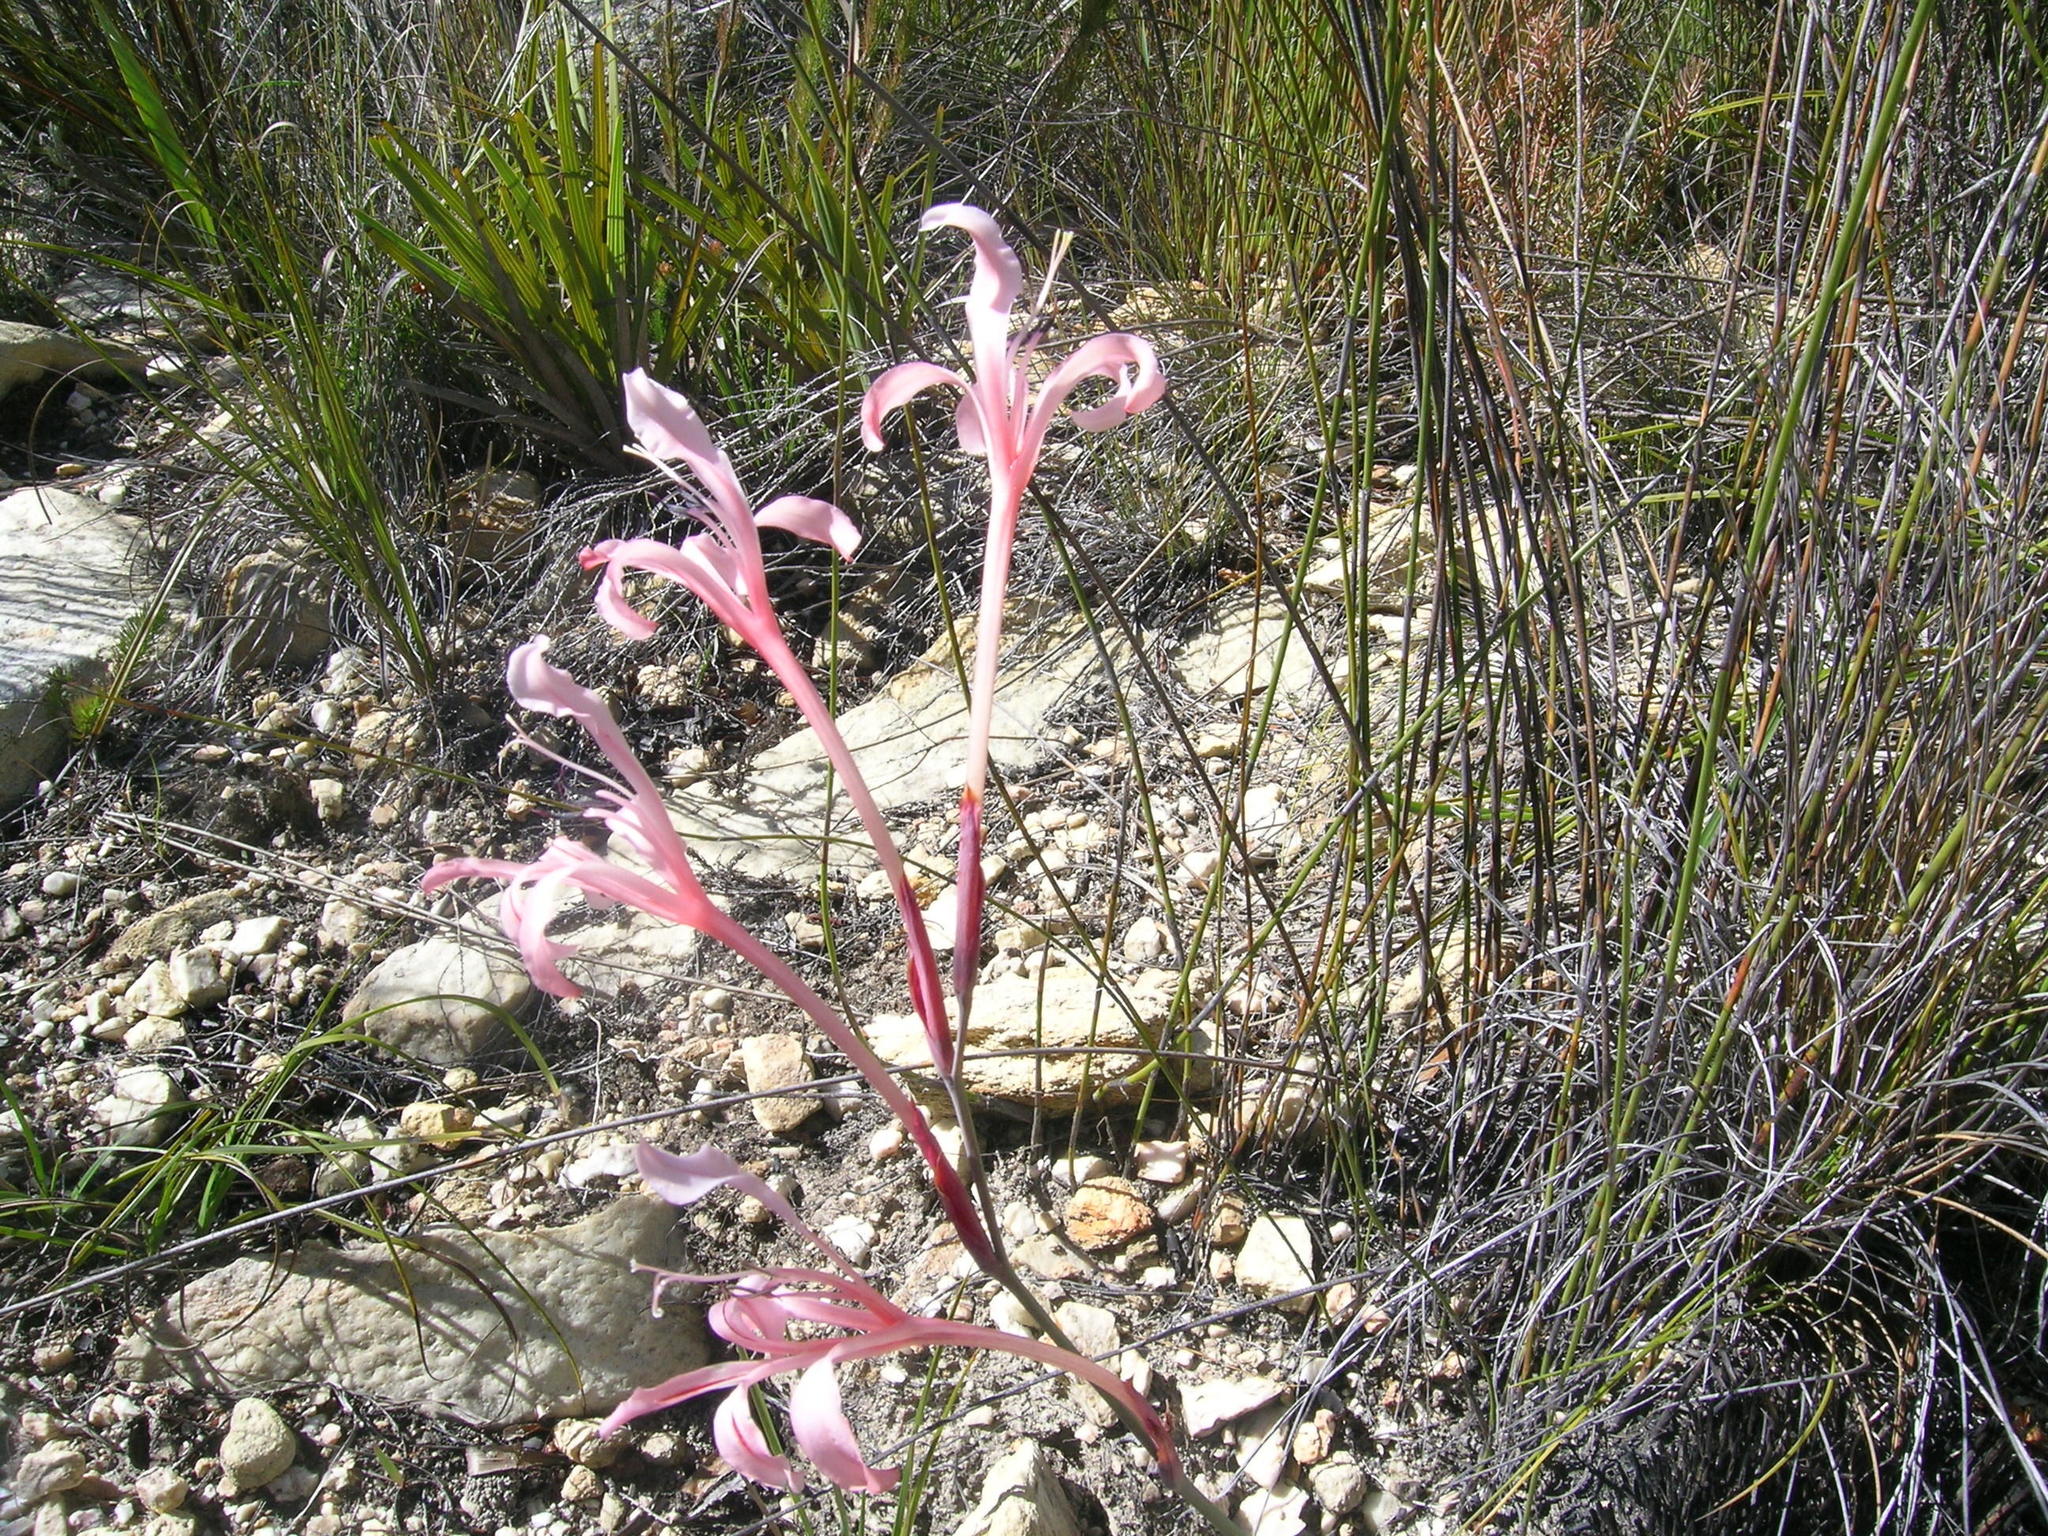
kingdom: Plantae
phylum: Tracheophyta
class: Liliopsida
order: Asparagales
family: Iridaceae
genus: Tritoniopsis
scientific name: Tritoniopsis revoluta
